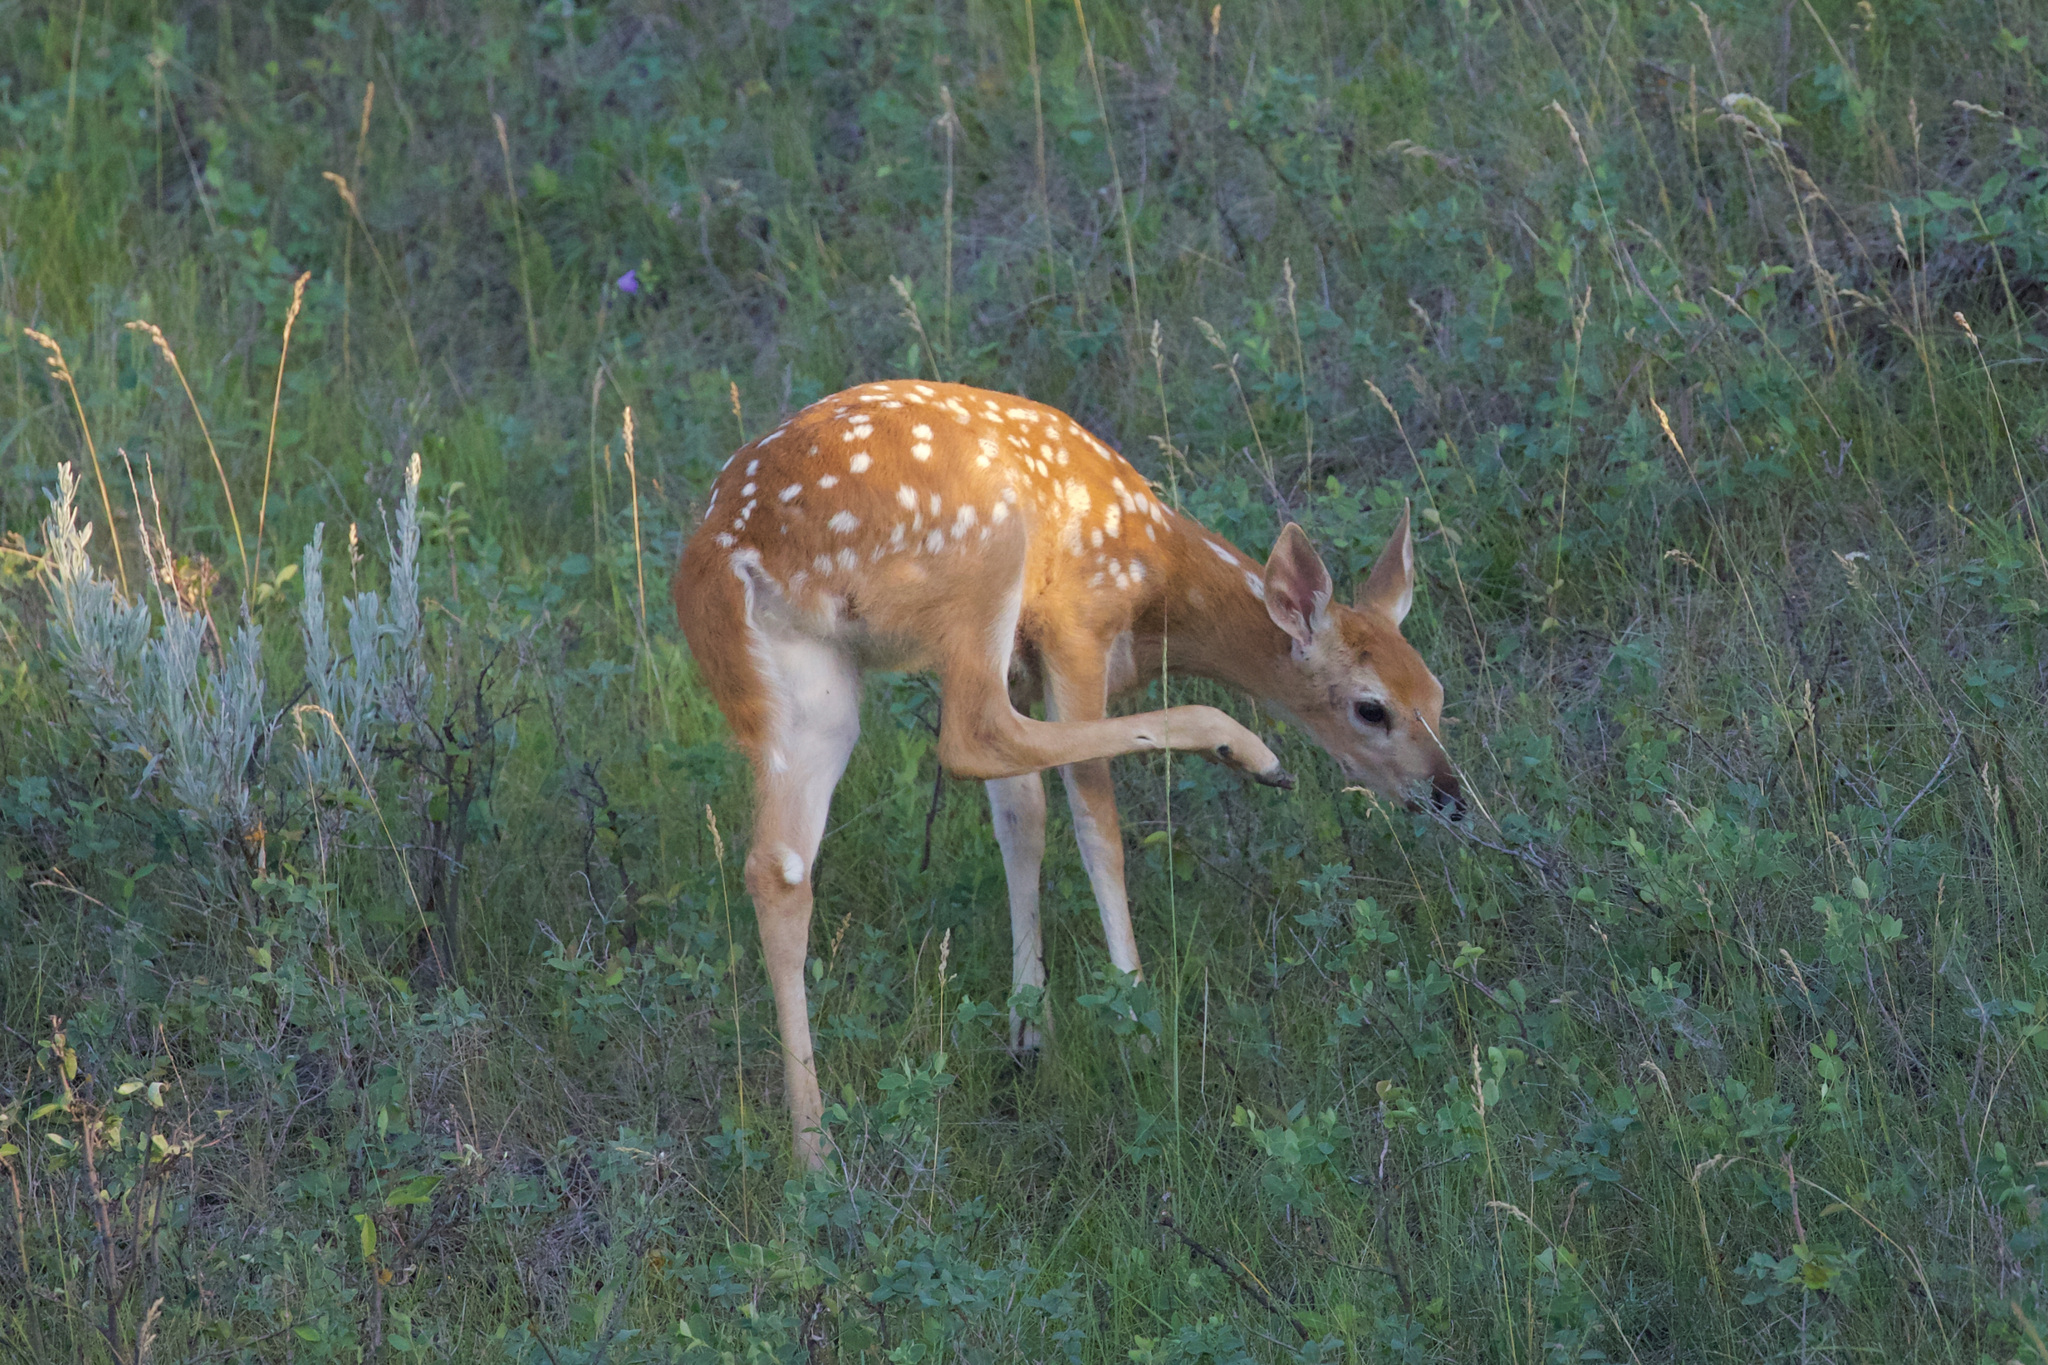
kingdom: Animalia
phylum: Chordata
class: Mammalia
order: Artiodactyla
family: Cervidae
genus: Odocoileus
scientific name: Odocoileus virginianus
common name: White-tailed deer
